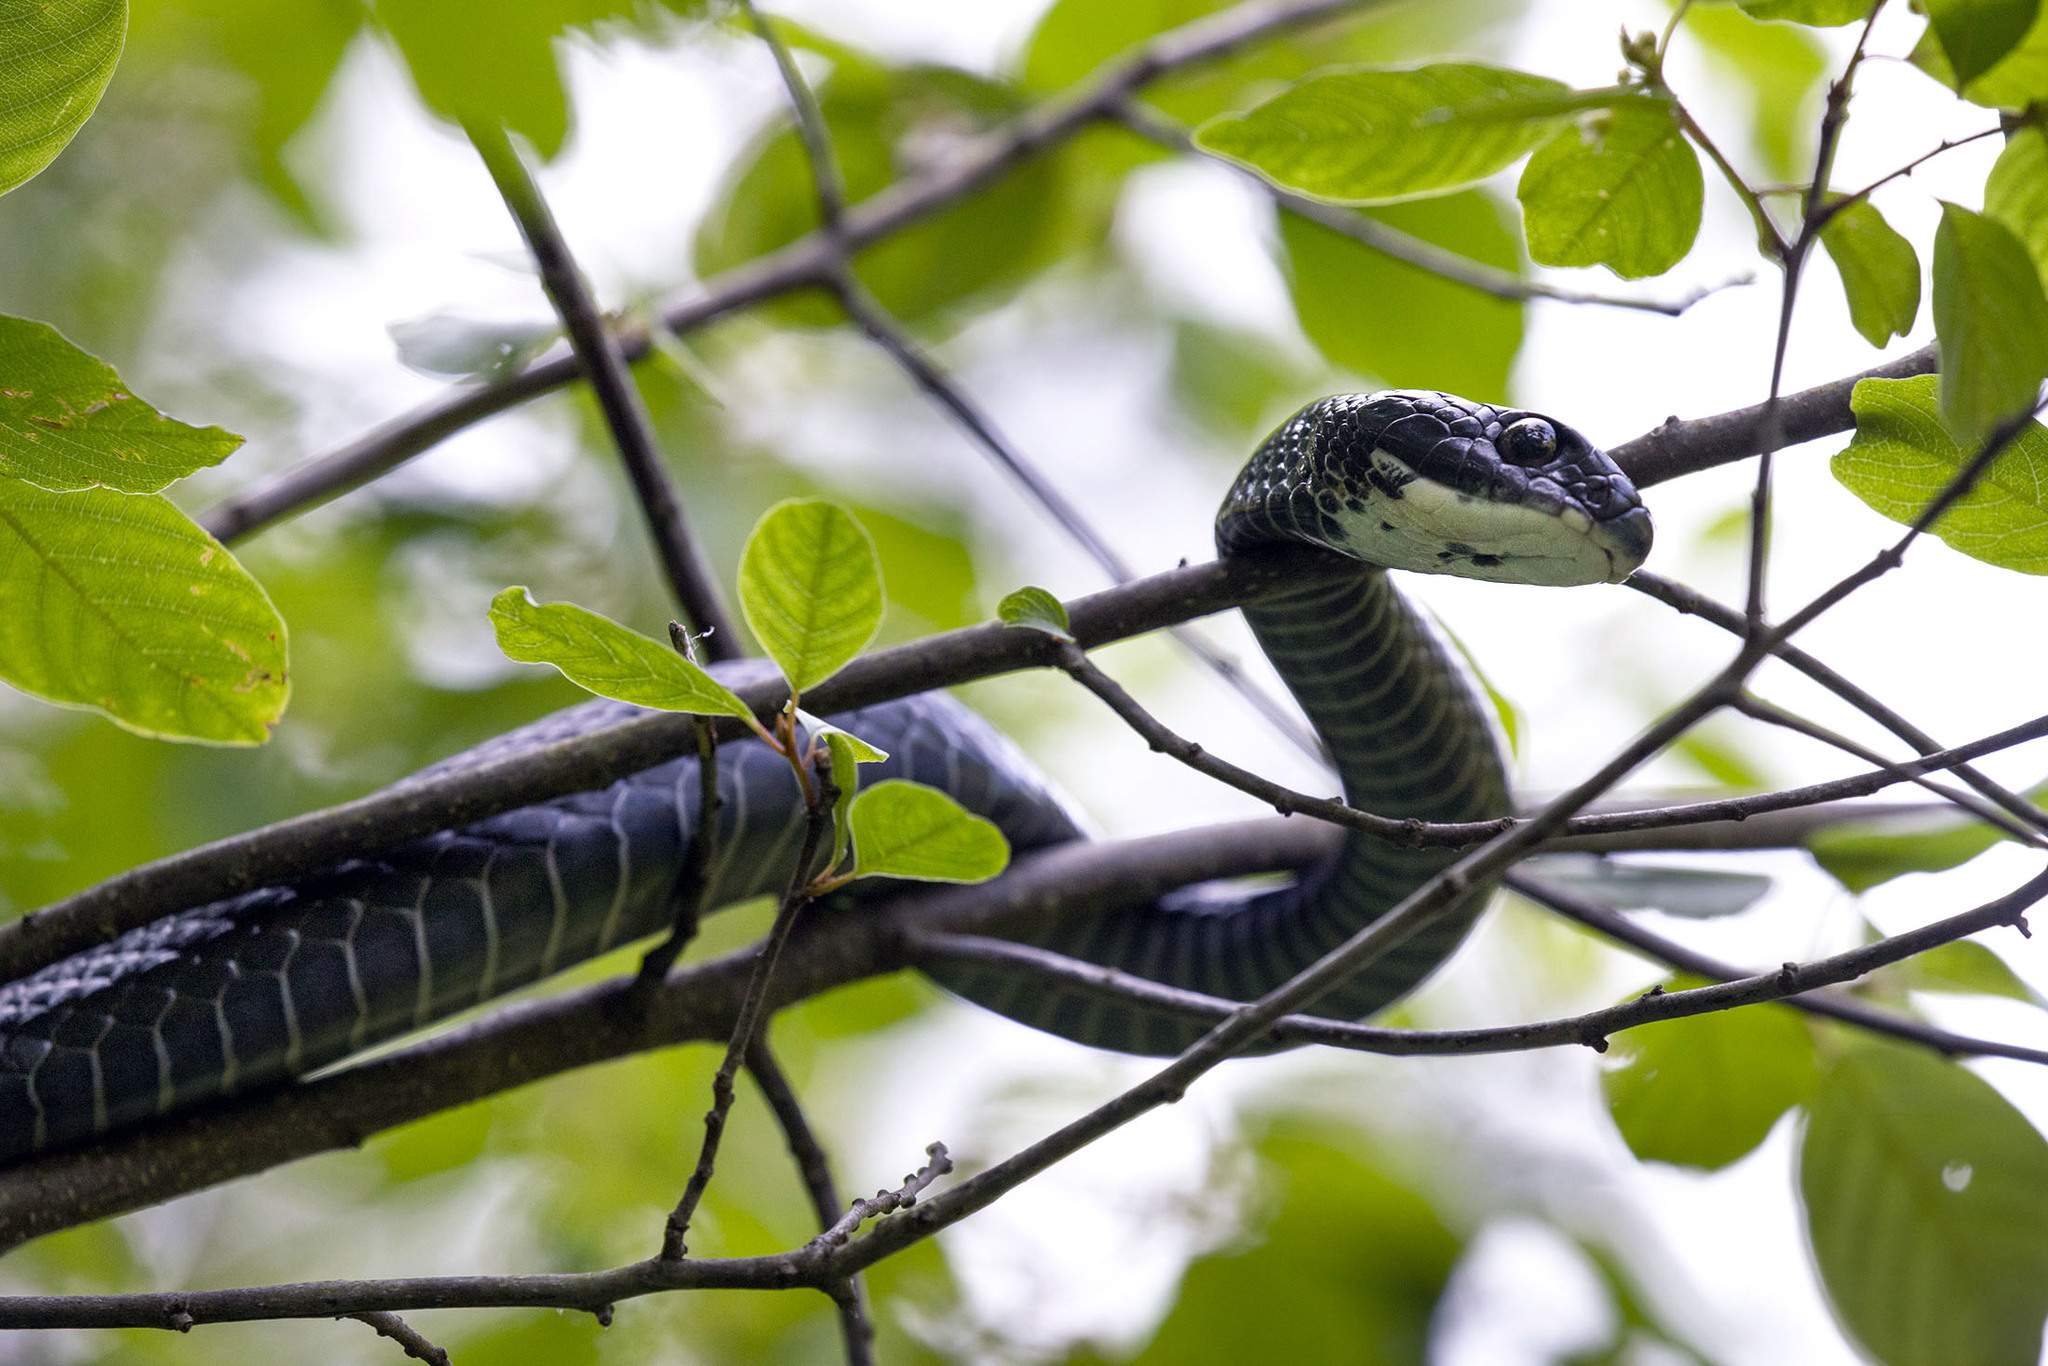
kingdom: Animalia
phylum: Chordata
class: Squamata
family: Colubridae
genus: Coluber
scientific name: Coluber constrictor
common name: Eastern racer
